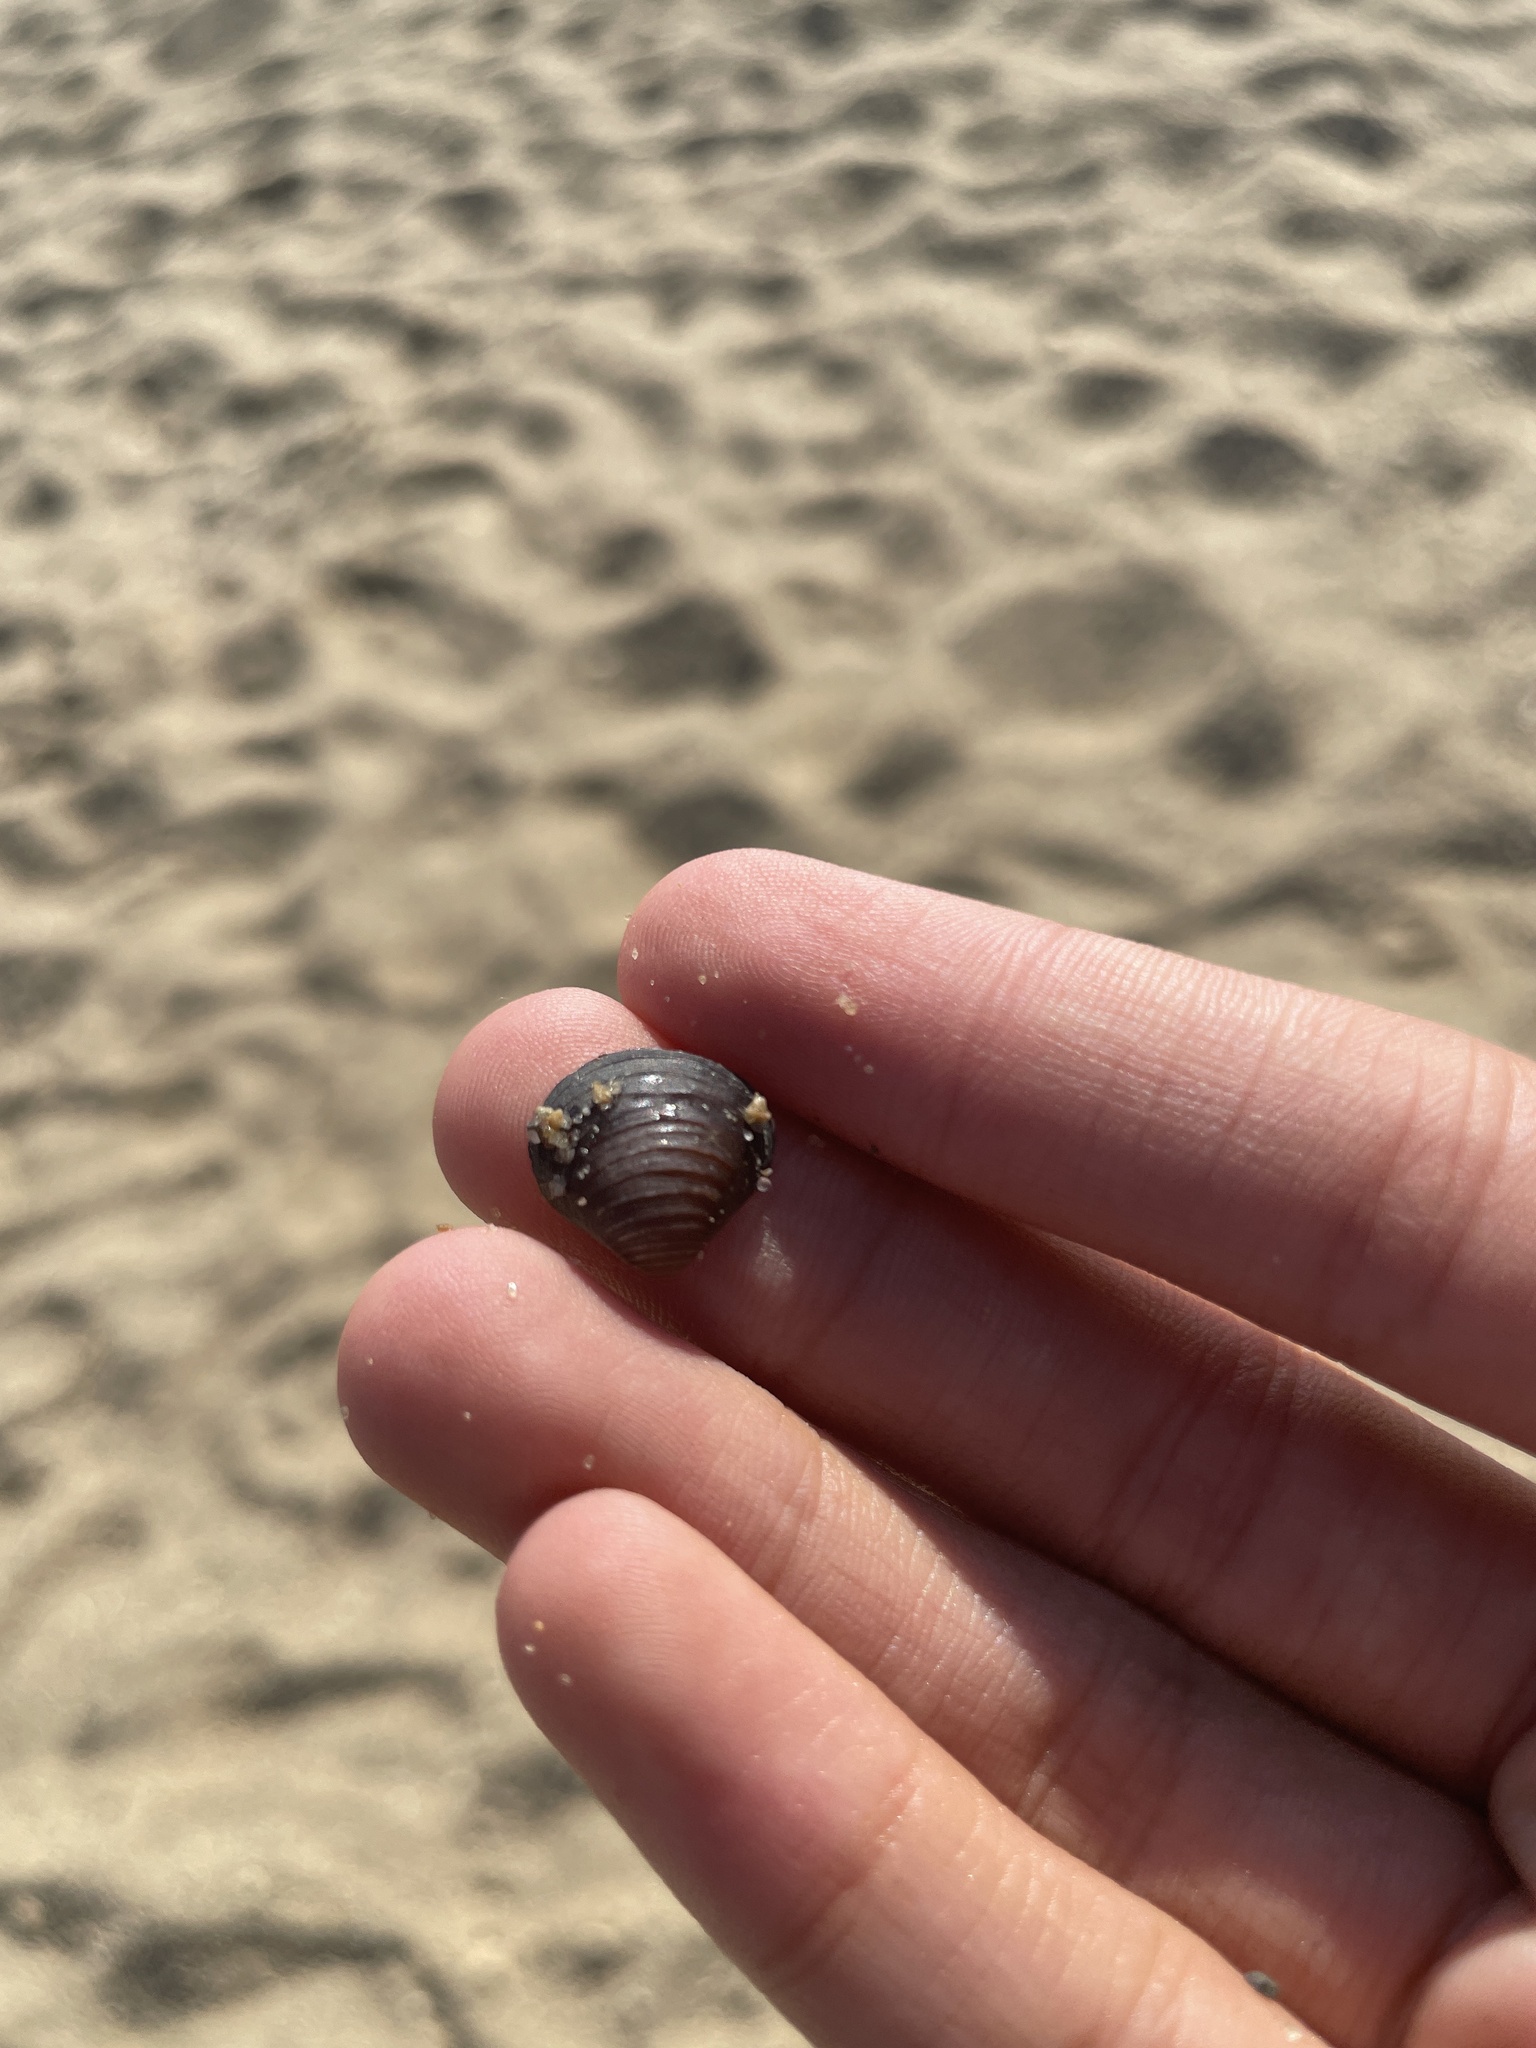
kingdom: Animalia
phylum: Mollusca
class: Bivalvia
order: Venerida
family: Cyrenidae
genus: Corbicula
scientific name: Corbicula fluminea
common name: Asian clam
